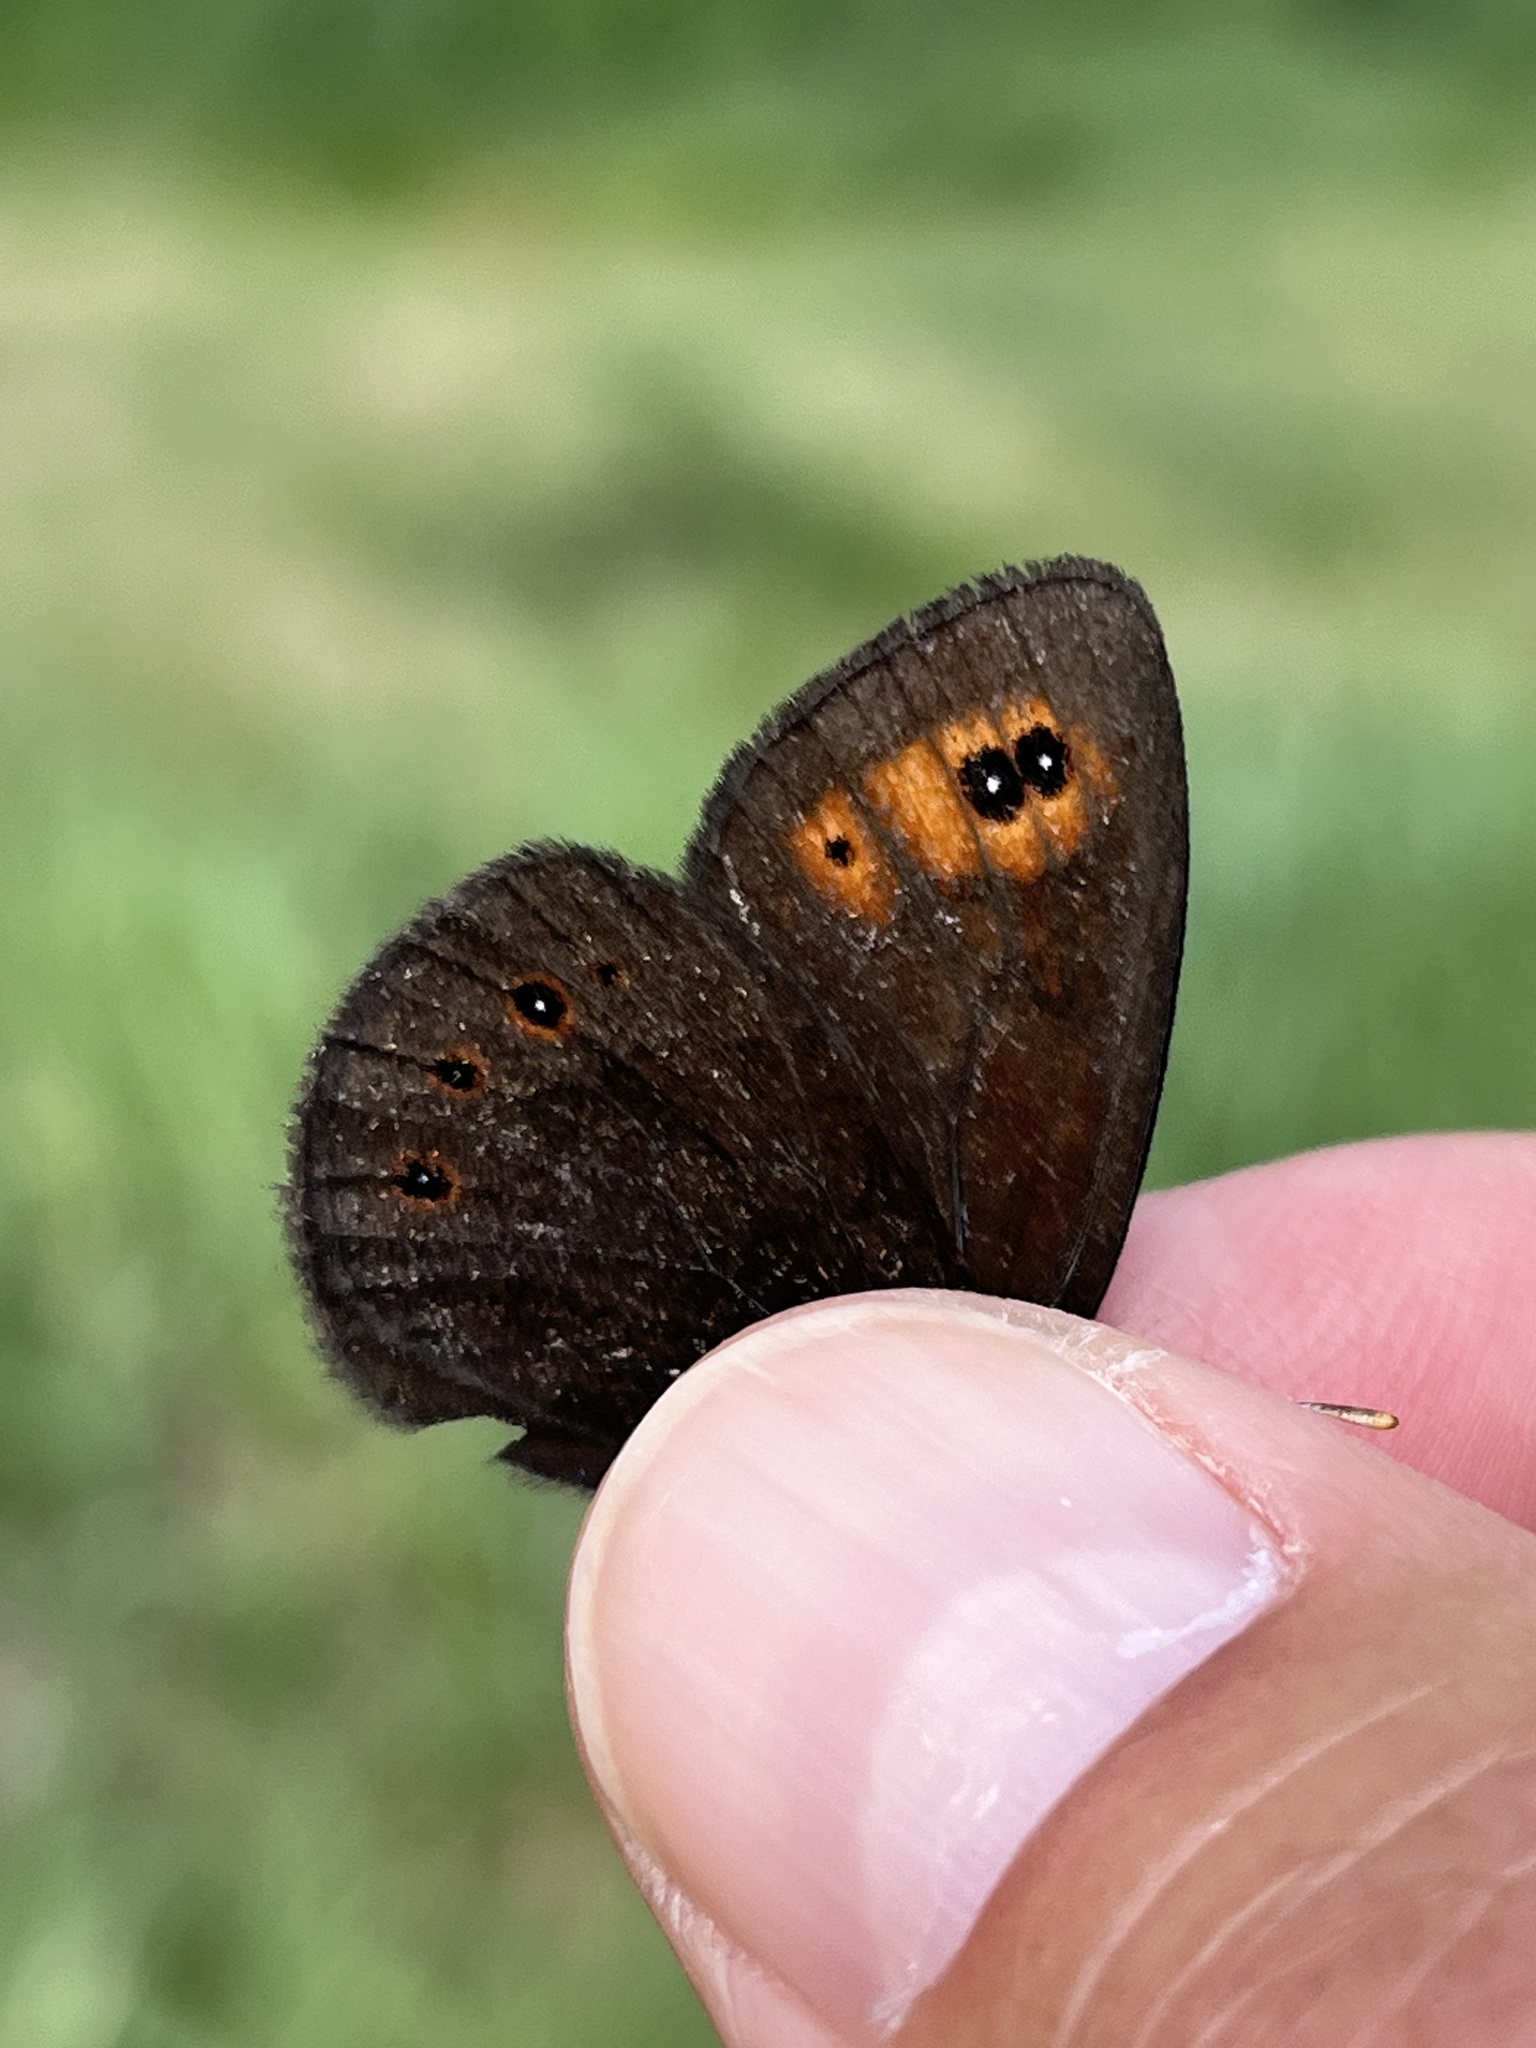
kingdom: Animalia
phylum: Arthropoda
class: Insecta
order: Lepidoptera
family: Nymphalidae
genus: Erebia
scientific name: Erebia epipsodea
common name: Common alpine
